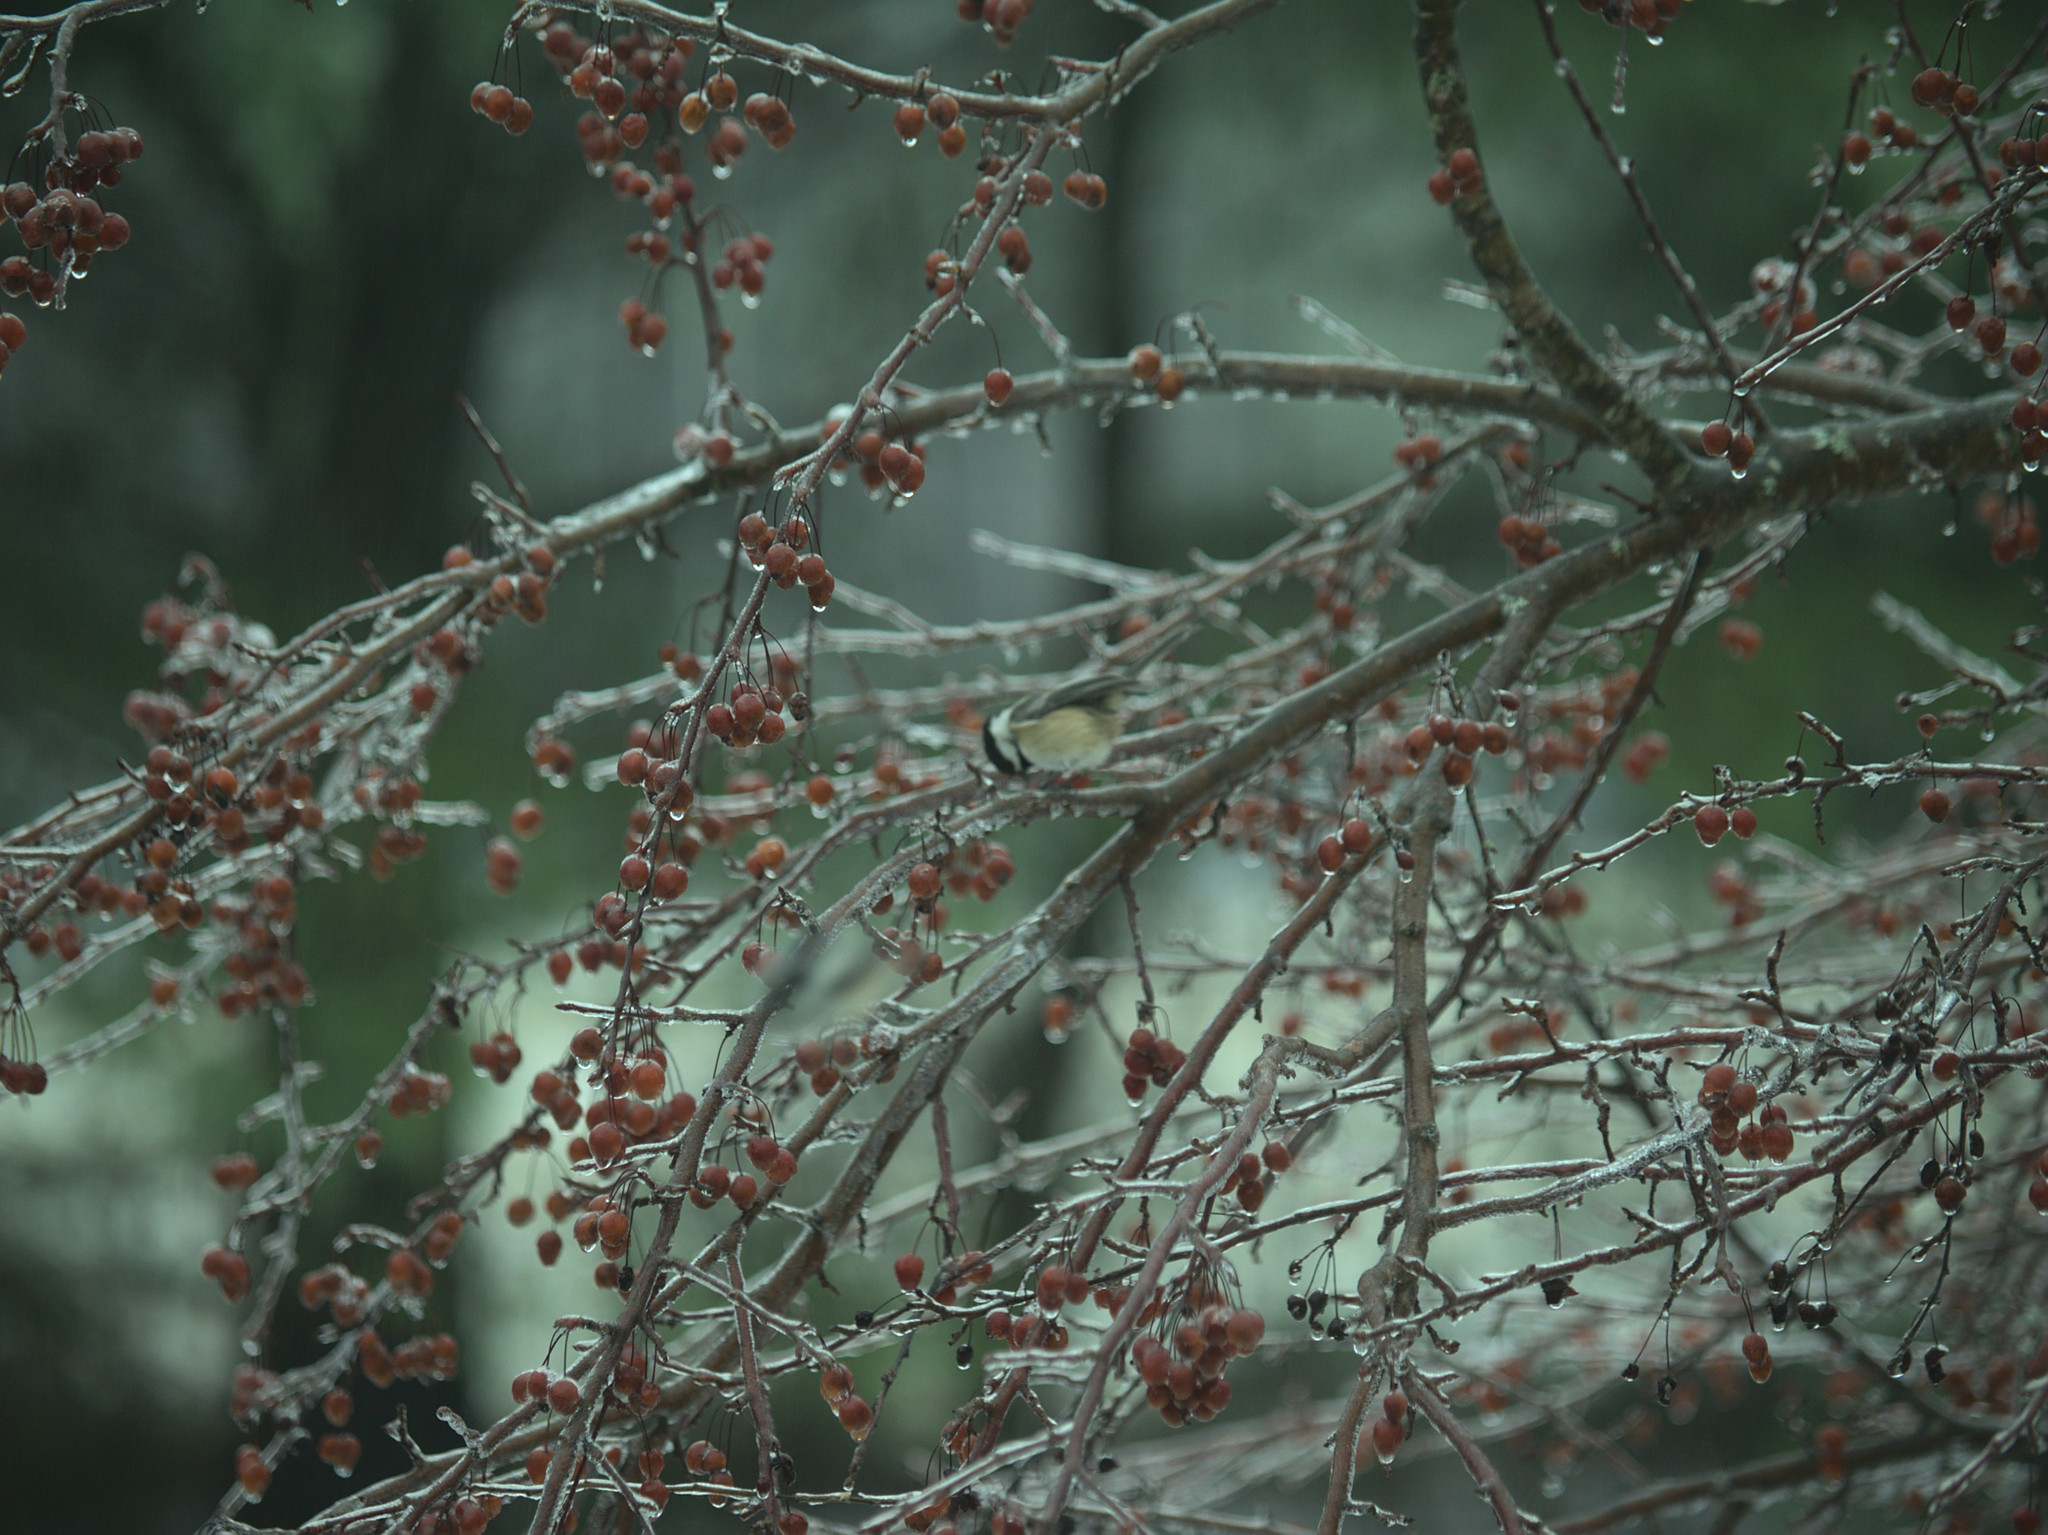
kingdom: Animalia
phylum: Chordata
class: Aves
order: Passeriformes
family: Paridae
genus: Poecile
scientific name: Poecile atricapillus
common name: Black-capped chickadee
